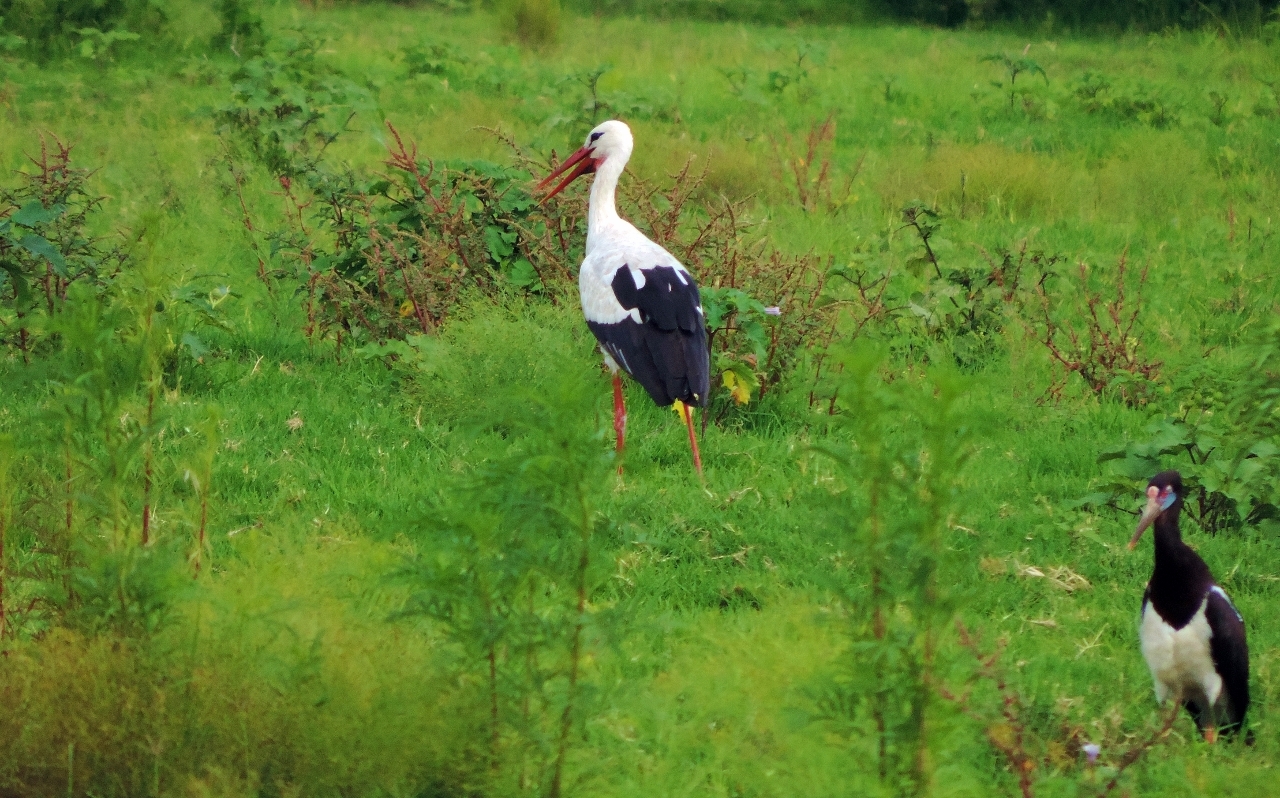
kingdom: Animalia
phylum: Chordata
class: Aves
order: Ciconiiformes
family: Ciconiidae
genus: Ciconia
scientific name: Ciconia ciconia
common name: White stork
